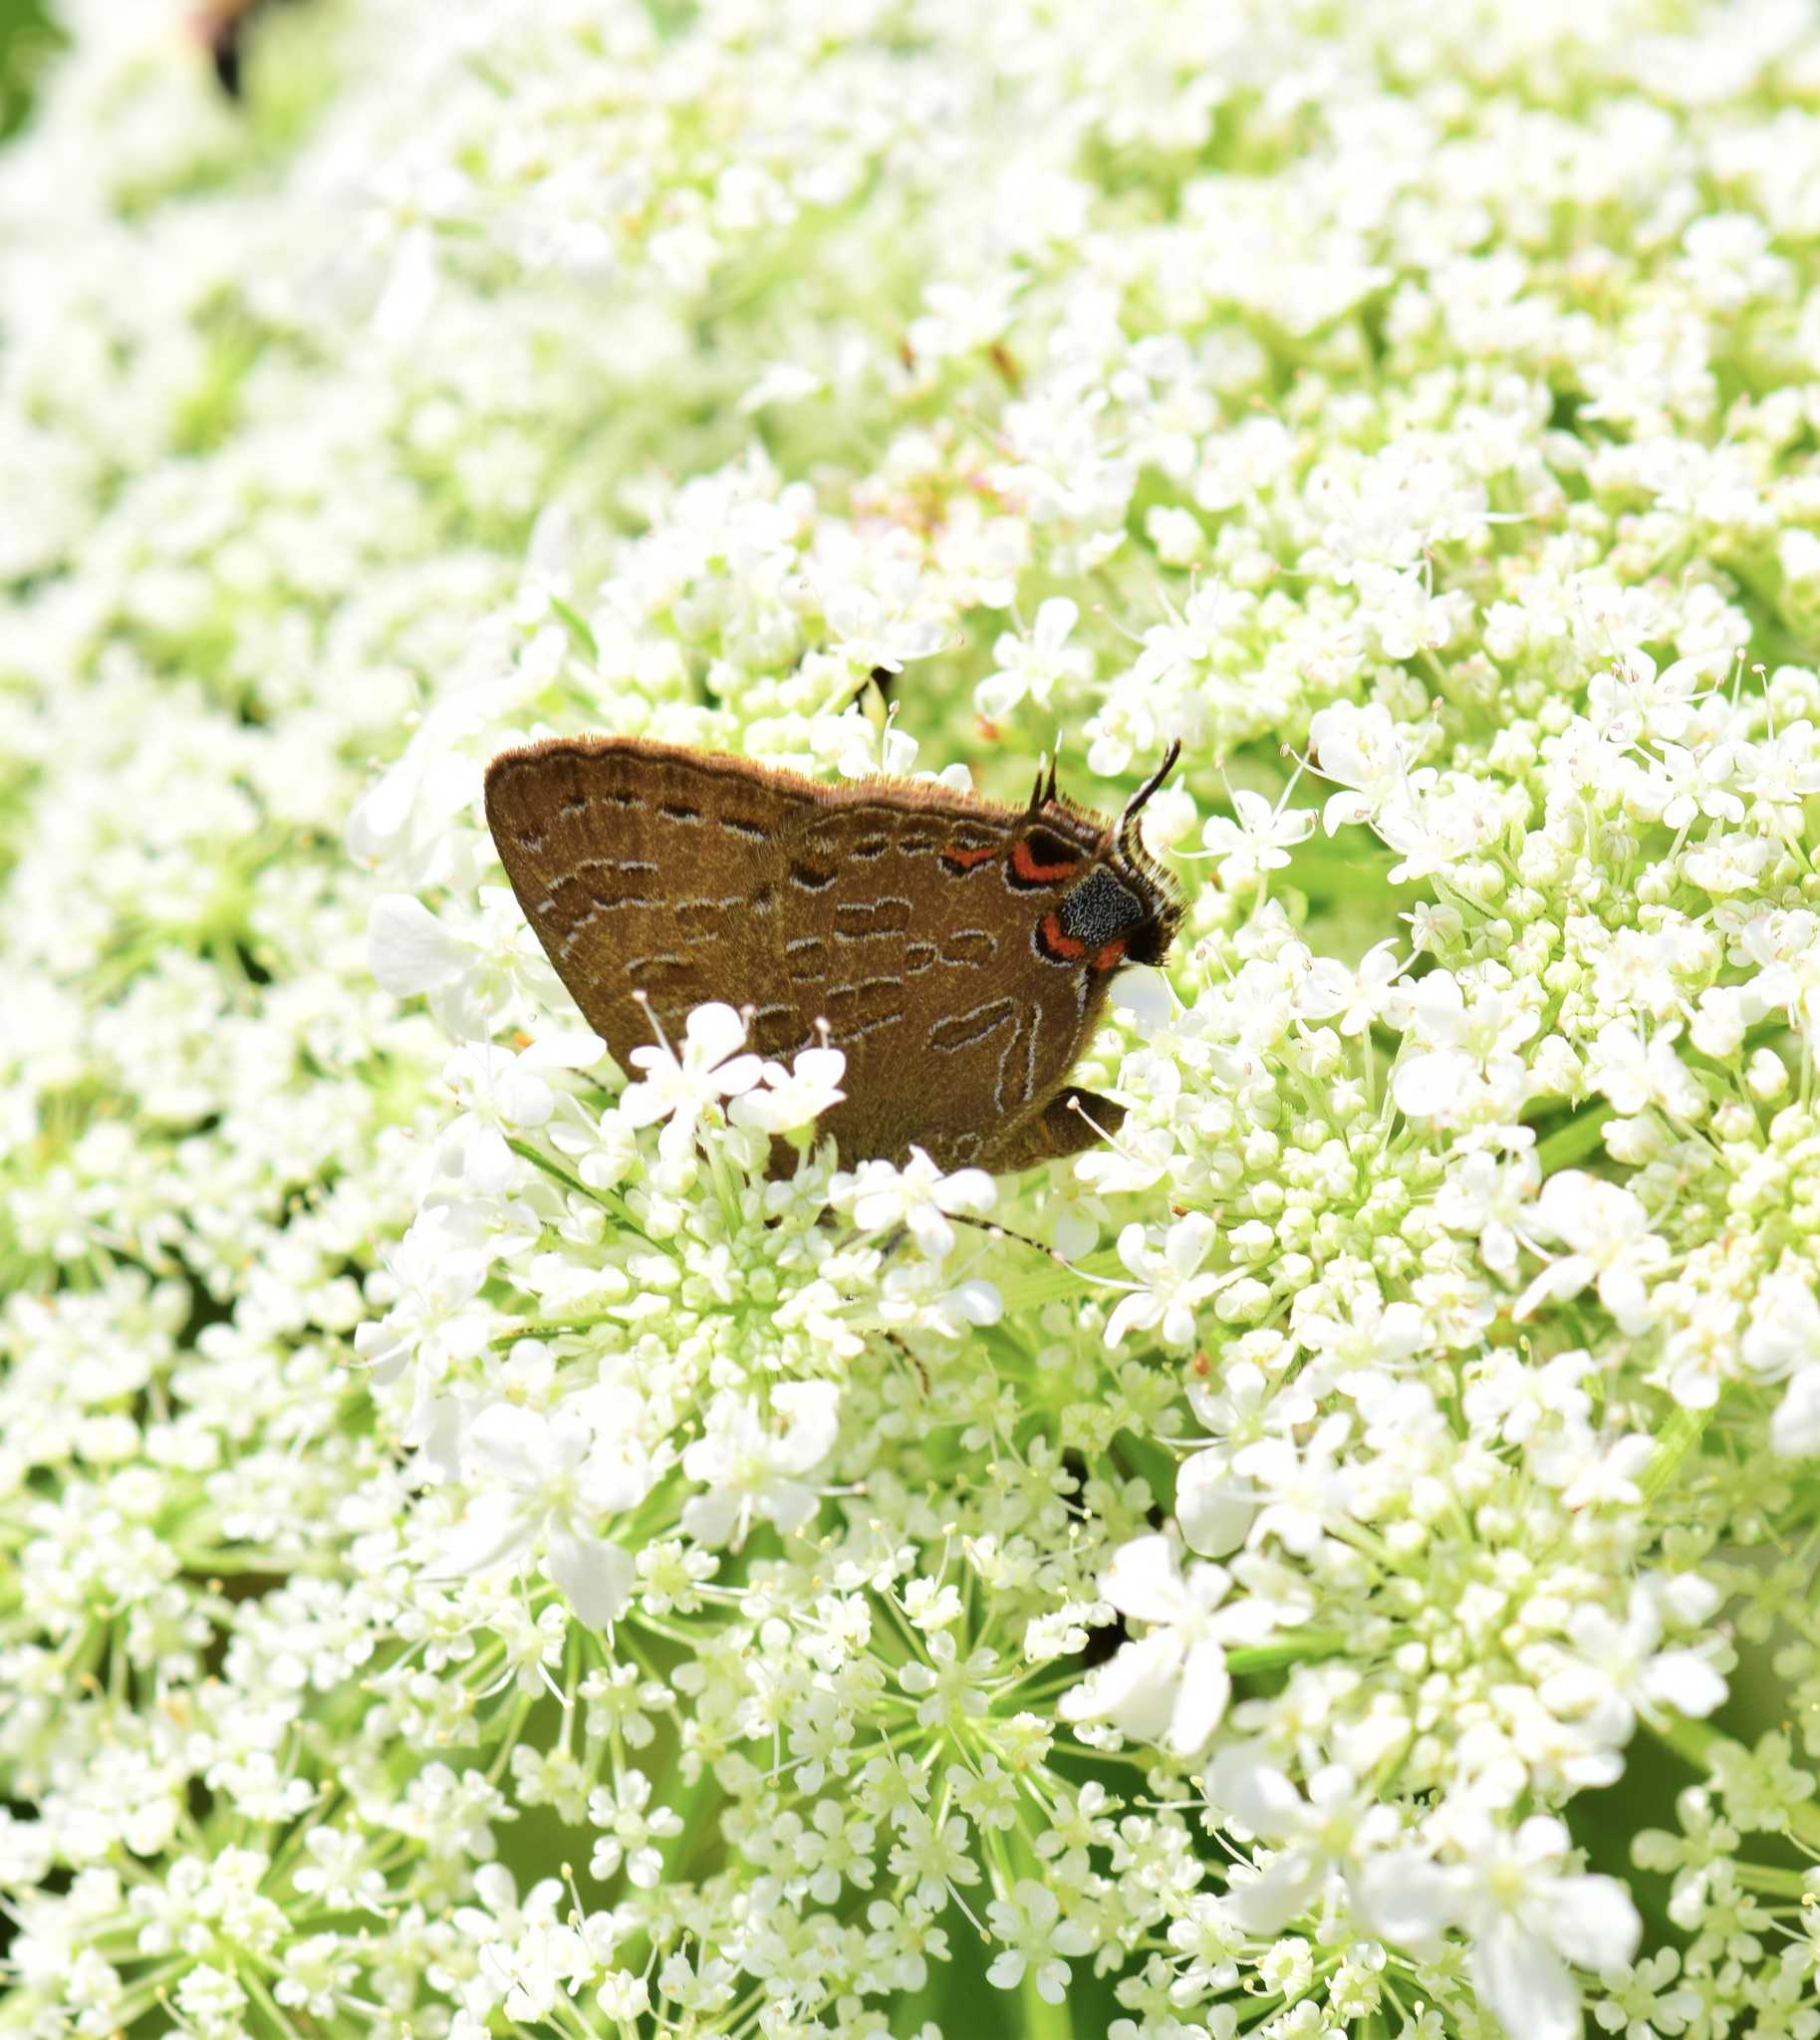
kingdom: Animalia
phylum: Arthropoda
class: Insecta
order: Lepidoptera
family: Lycaenidae
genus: Satyrium
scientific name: Satyrium liparops
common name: Striped hairstreak
